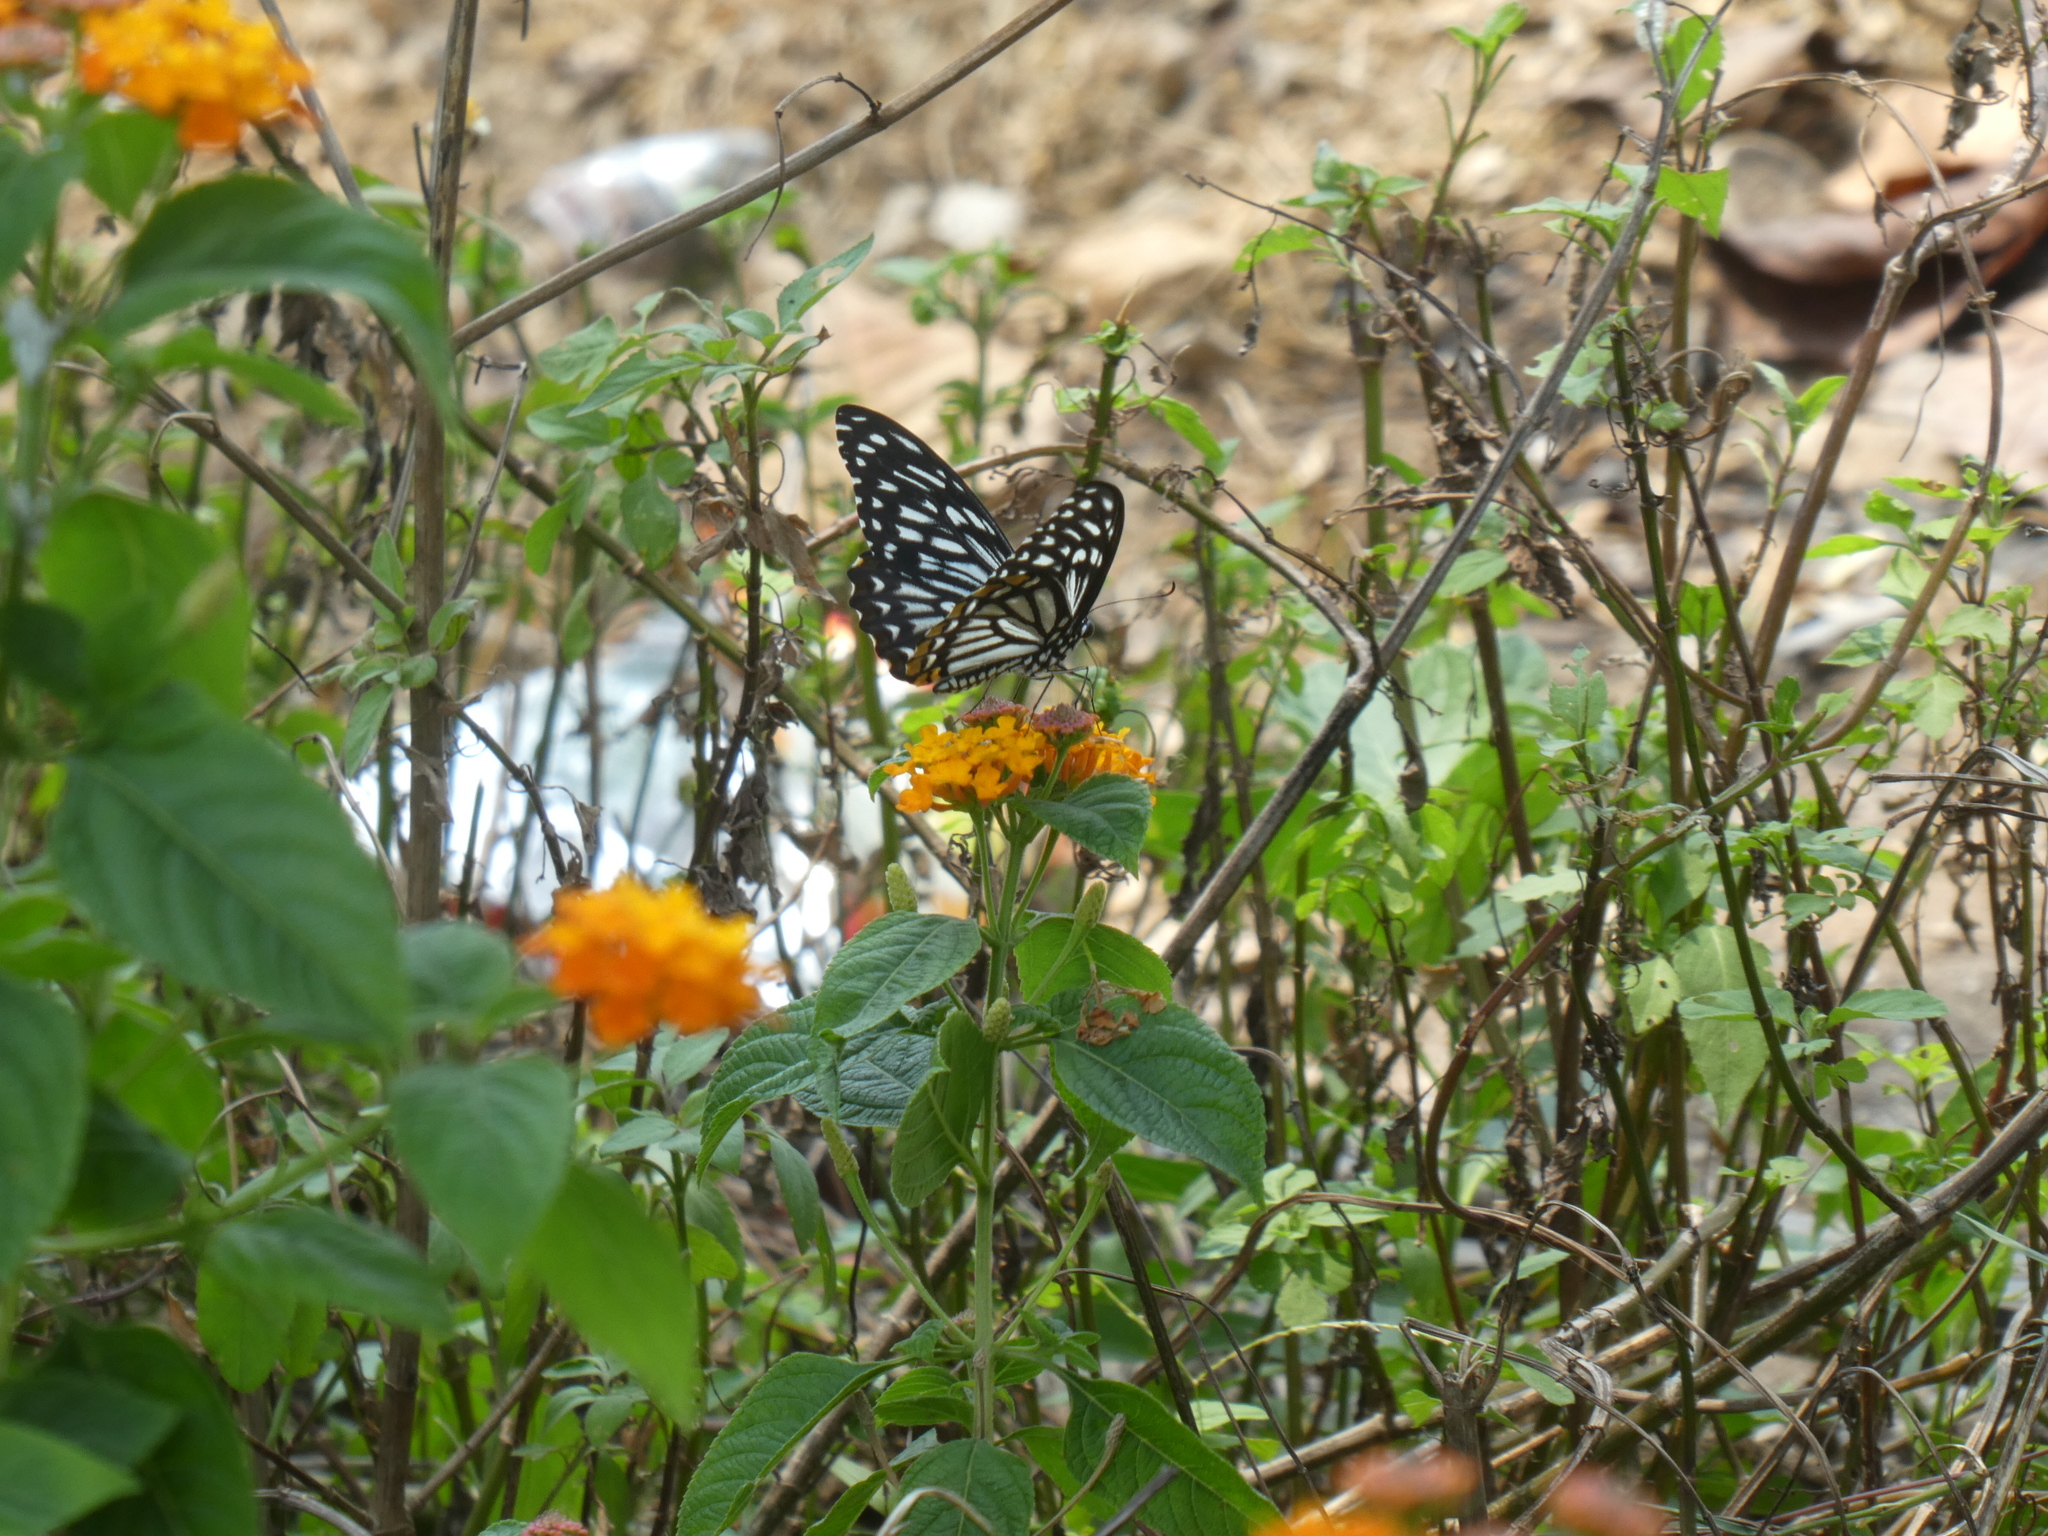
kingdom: Animalia
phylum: Arthropoda
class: Insecta
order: Lepidoptera
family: Papilionidae
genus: Chilasa
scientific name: Chilasa clytia
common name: Common mime
